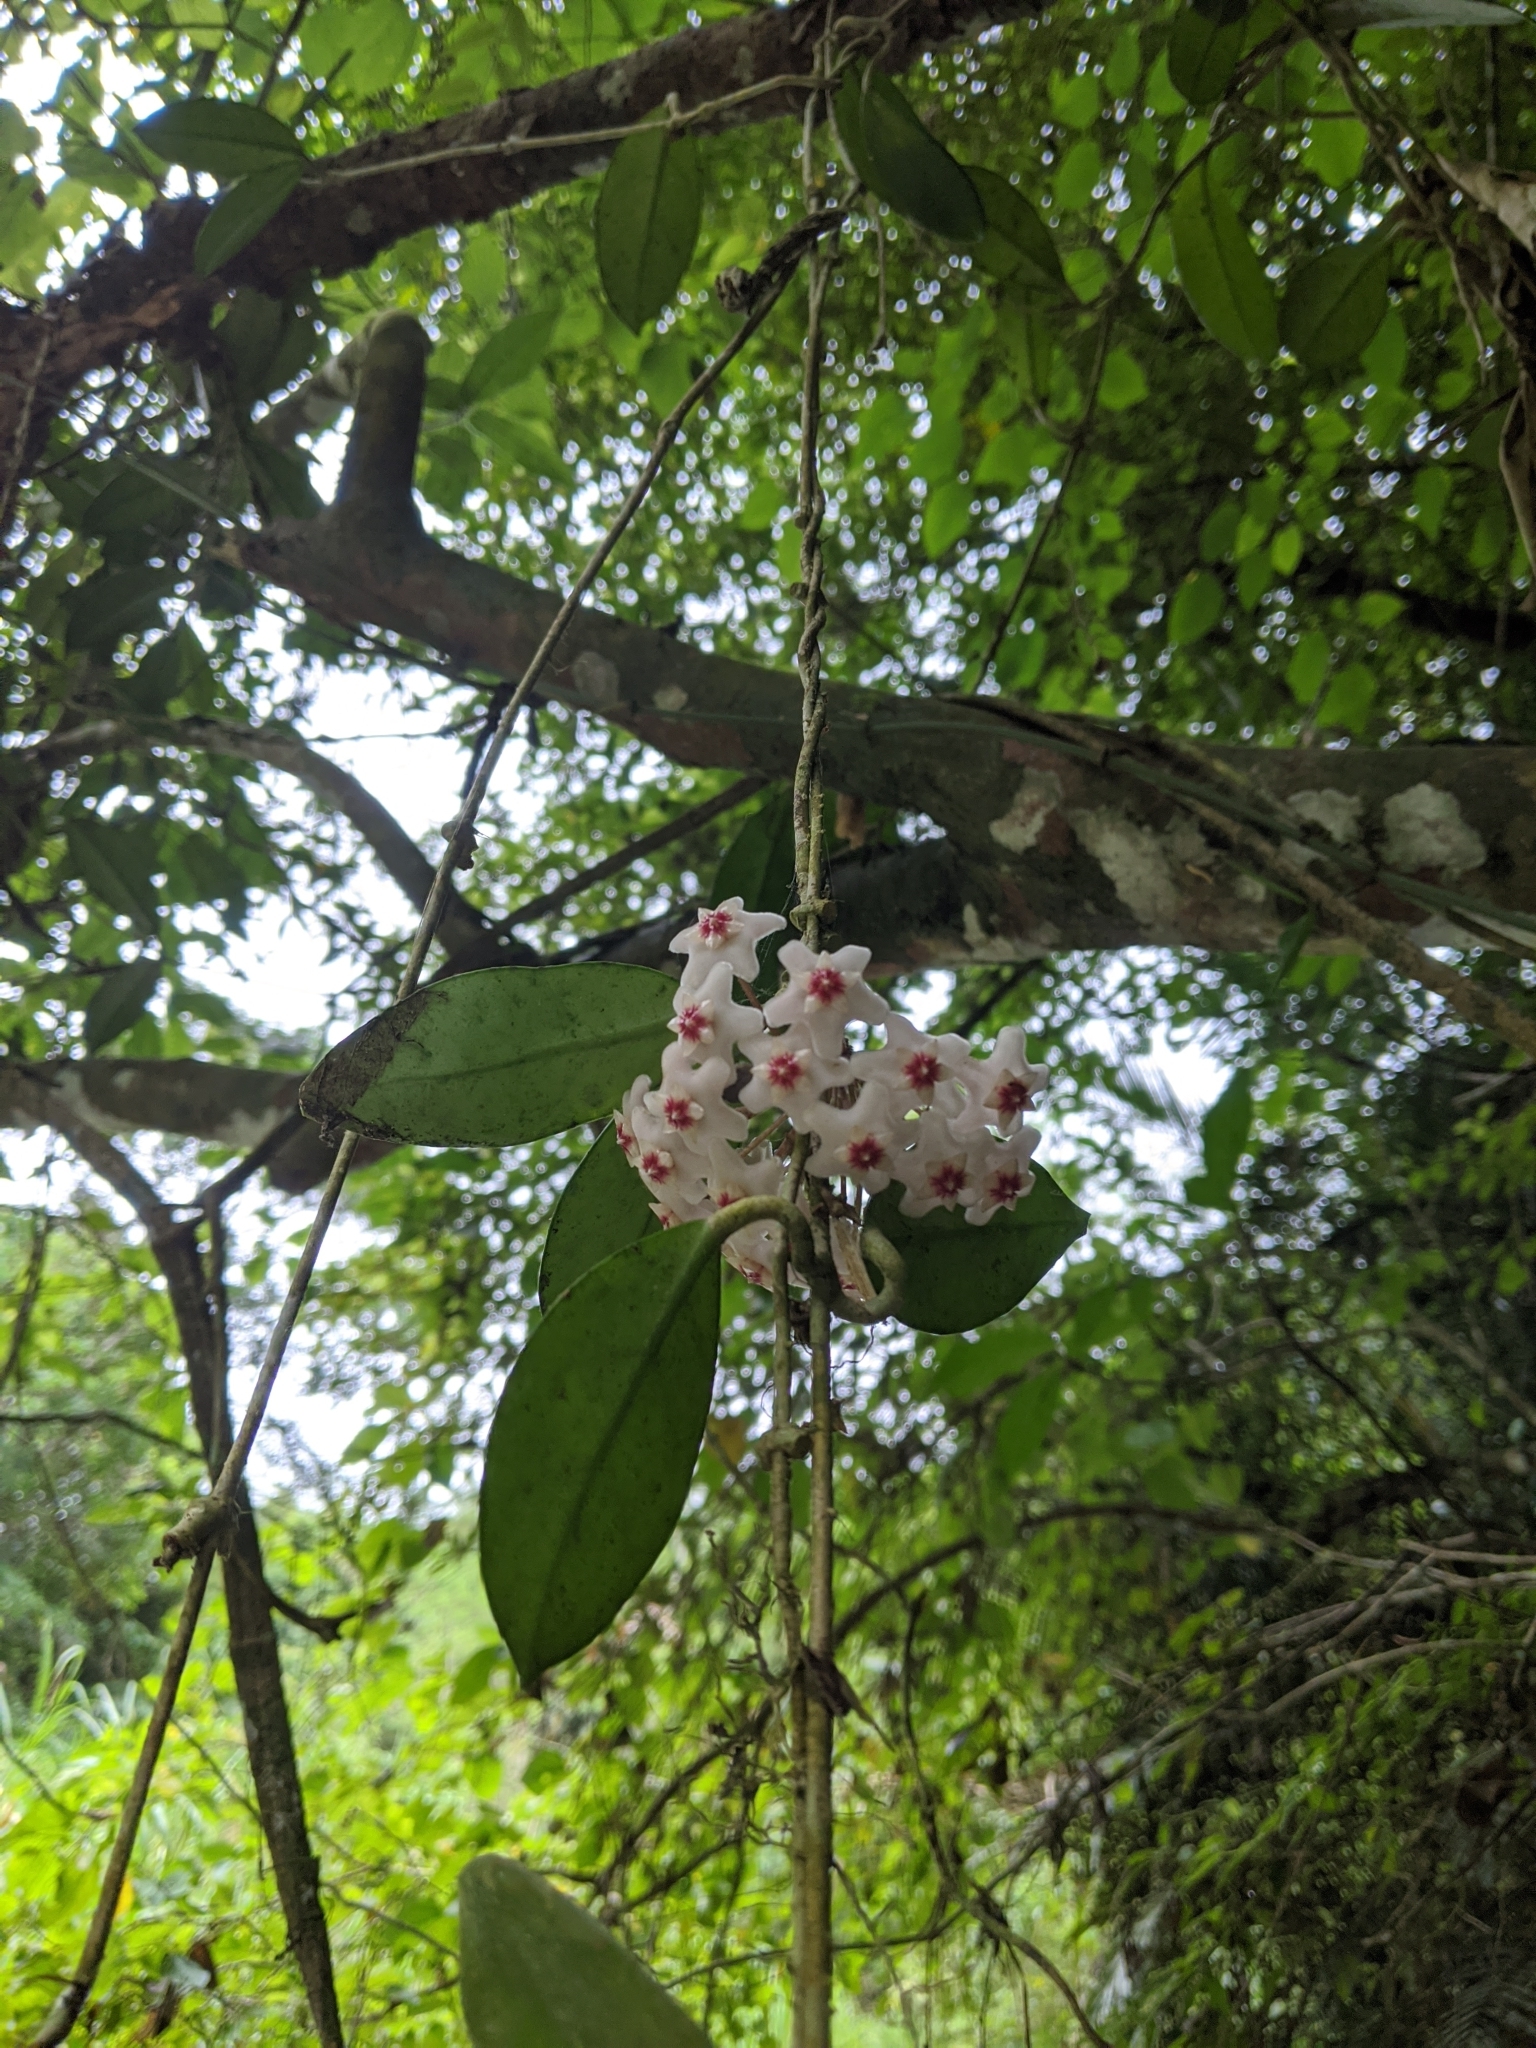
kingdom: Plantae
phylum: Tracheophyta
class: Magnoliopsida
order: Gentianales
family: Apocynaceae
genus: Hoya
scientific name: Hoya carnosa
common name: Honeyplant
